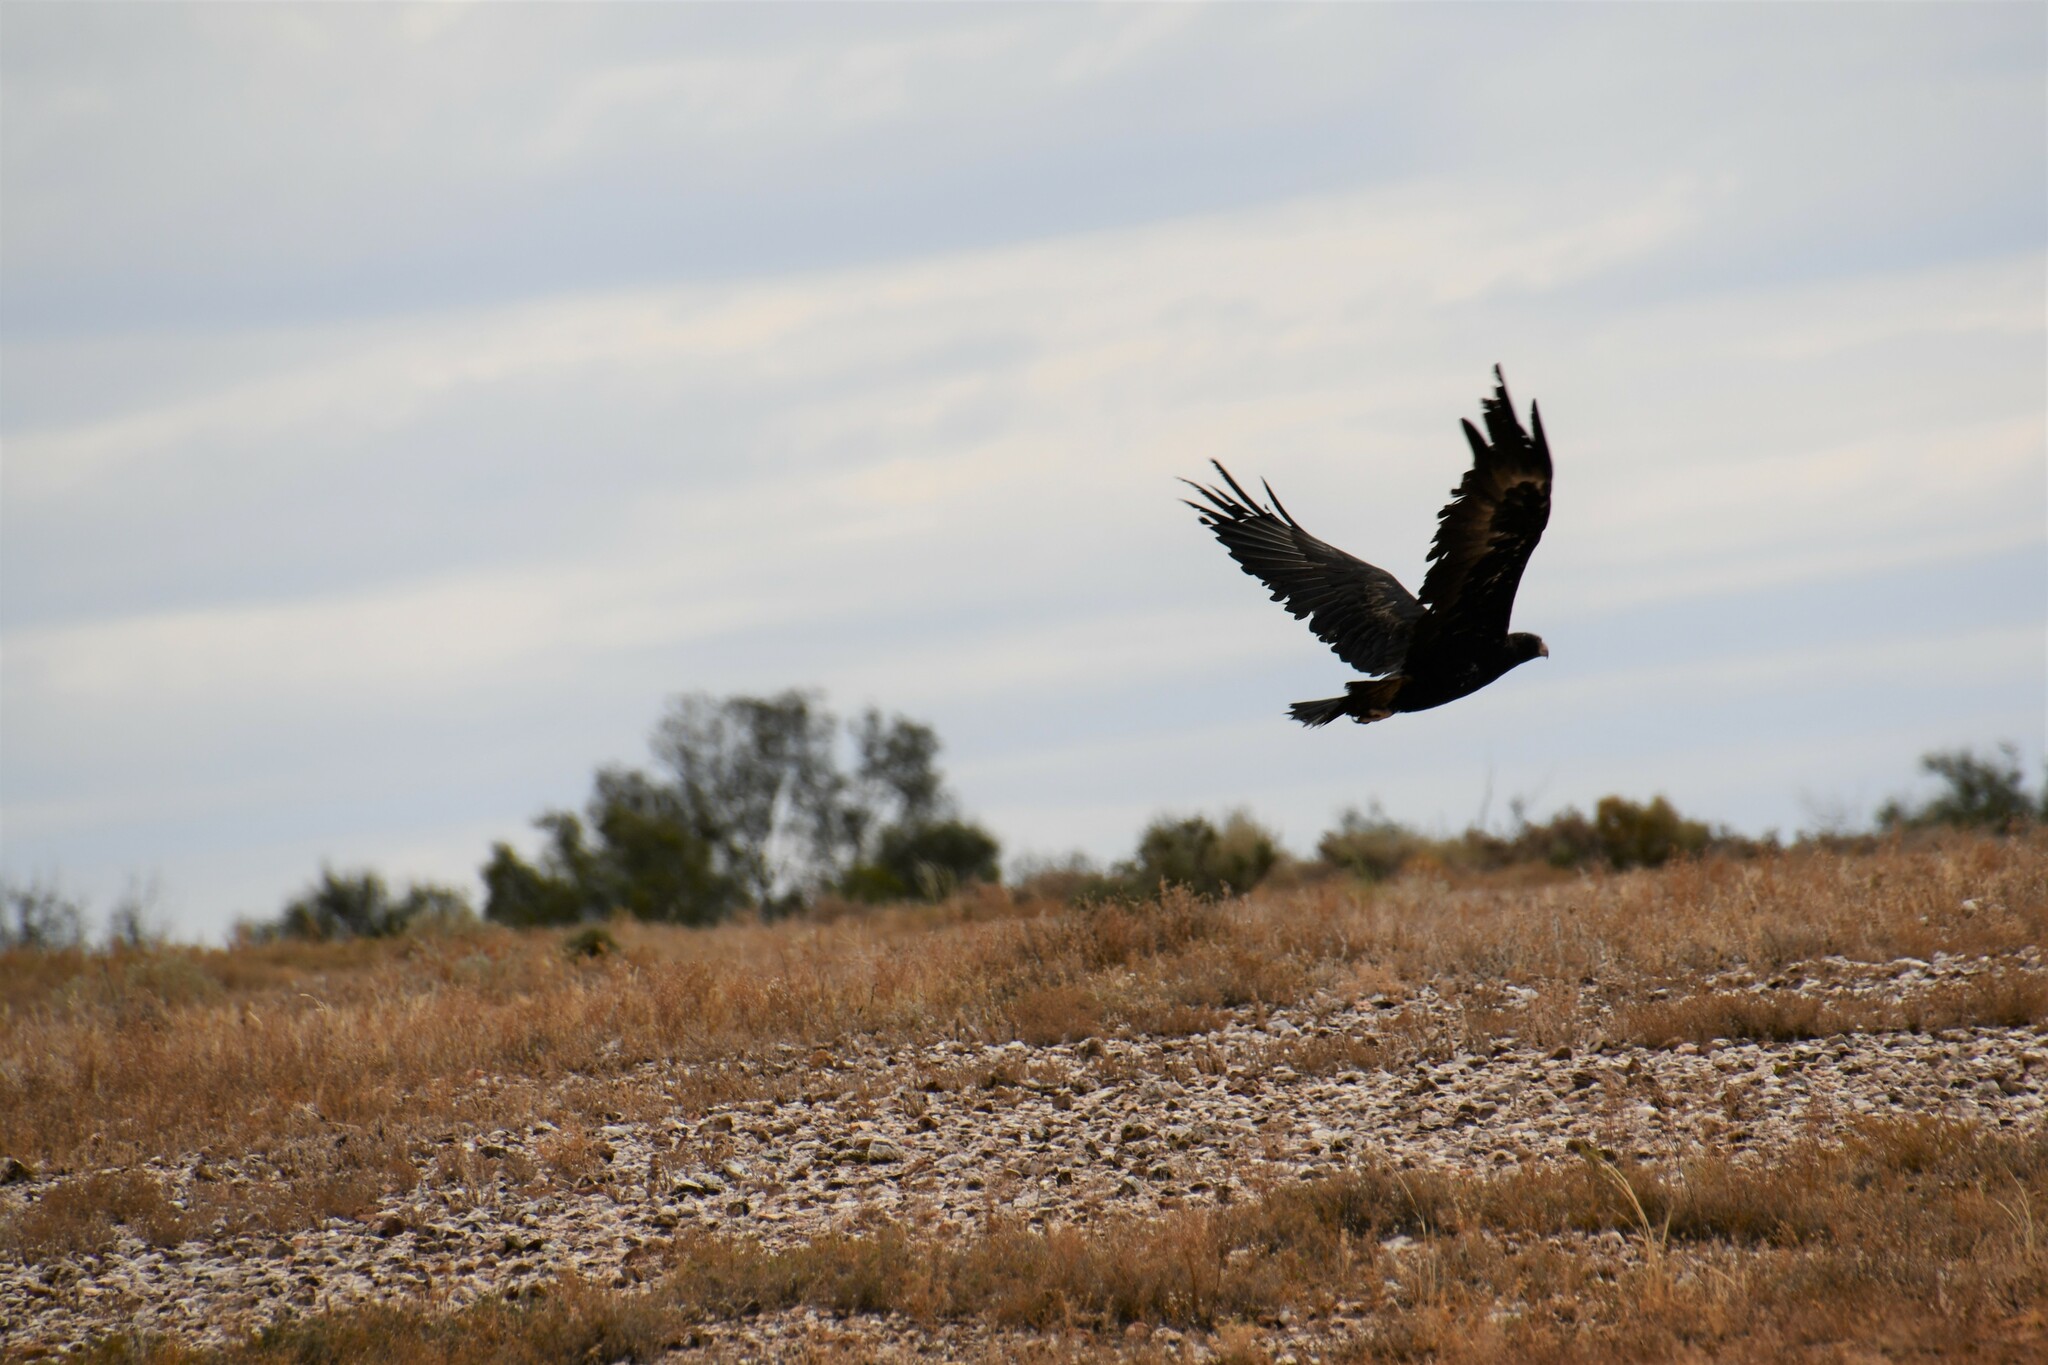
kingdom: Animalia
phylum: Chordata
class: Aves
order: Accipitriformes
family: Accipitridae
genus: Aquila
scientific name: Aquila audax
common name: Wedge-tailed eagle
